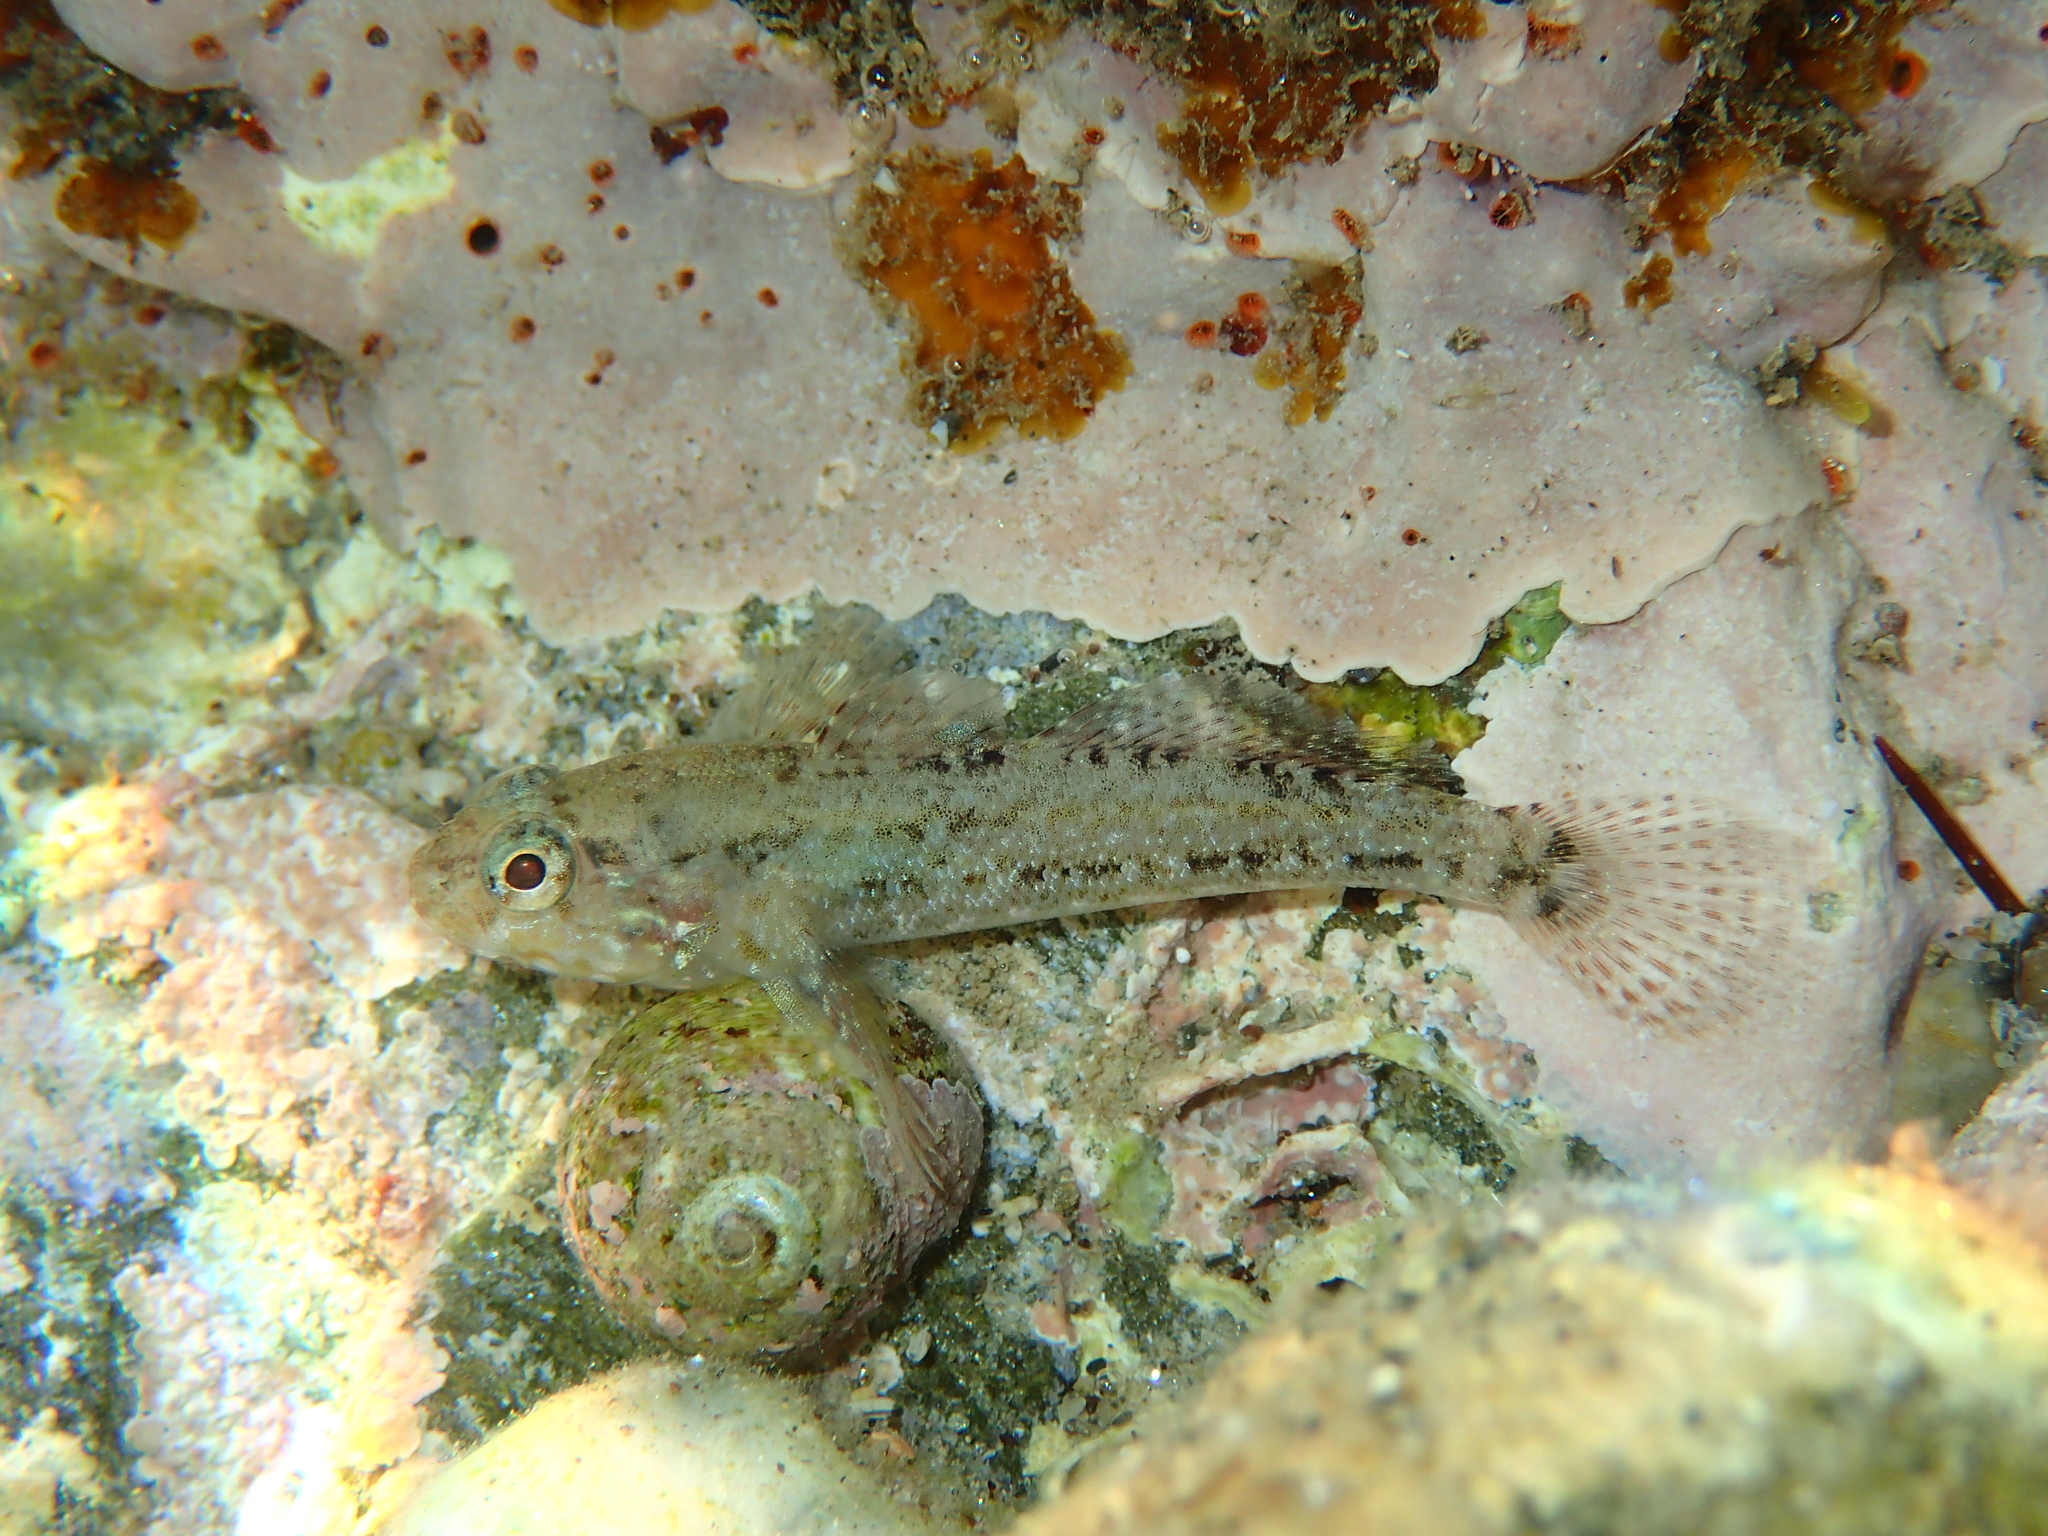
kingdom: Animalia
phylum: Chordata
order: Perciformes
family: Gobiidae
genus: Gobius
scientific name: Gobius paganellus
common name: Rock goby
